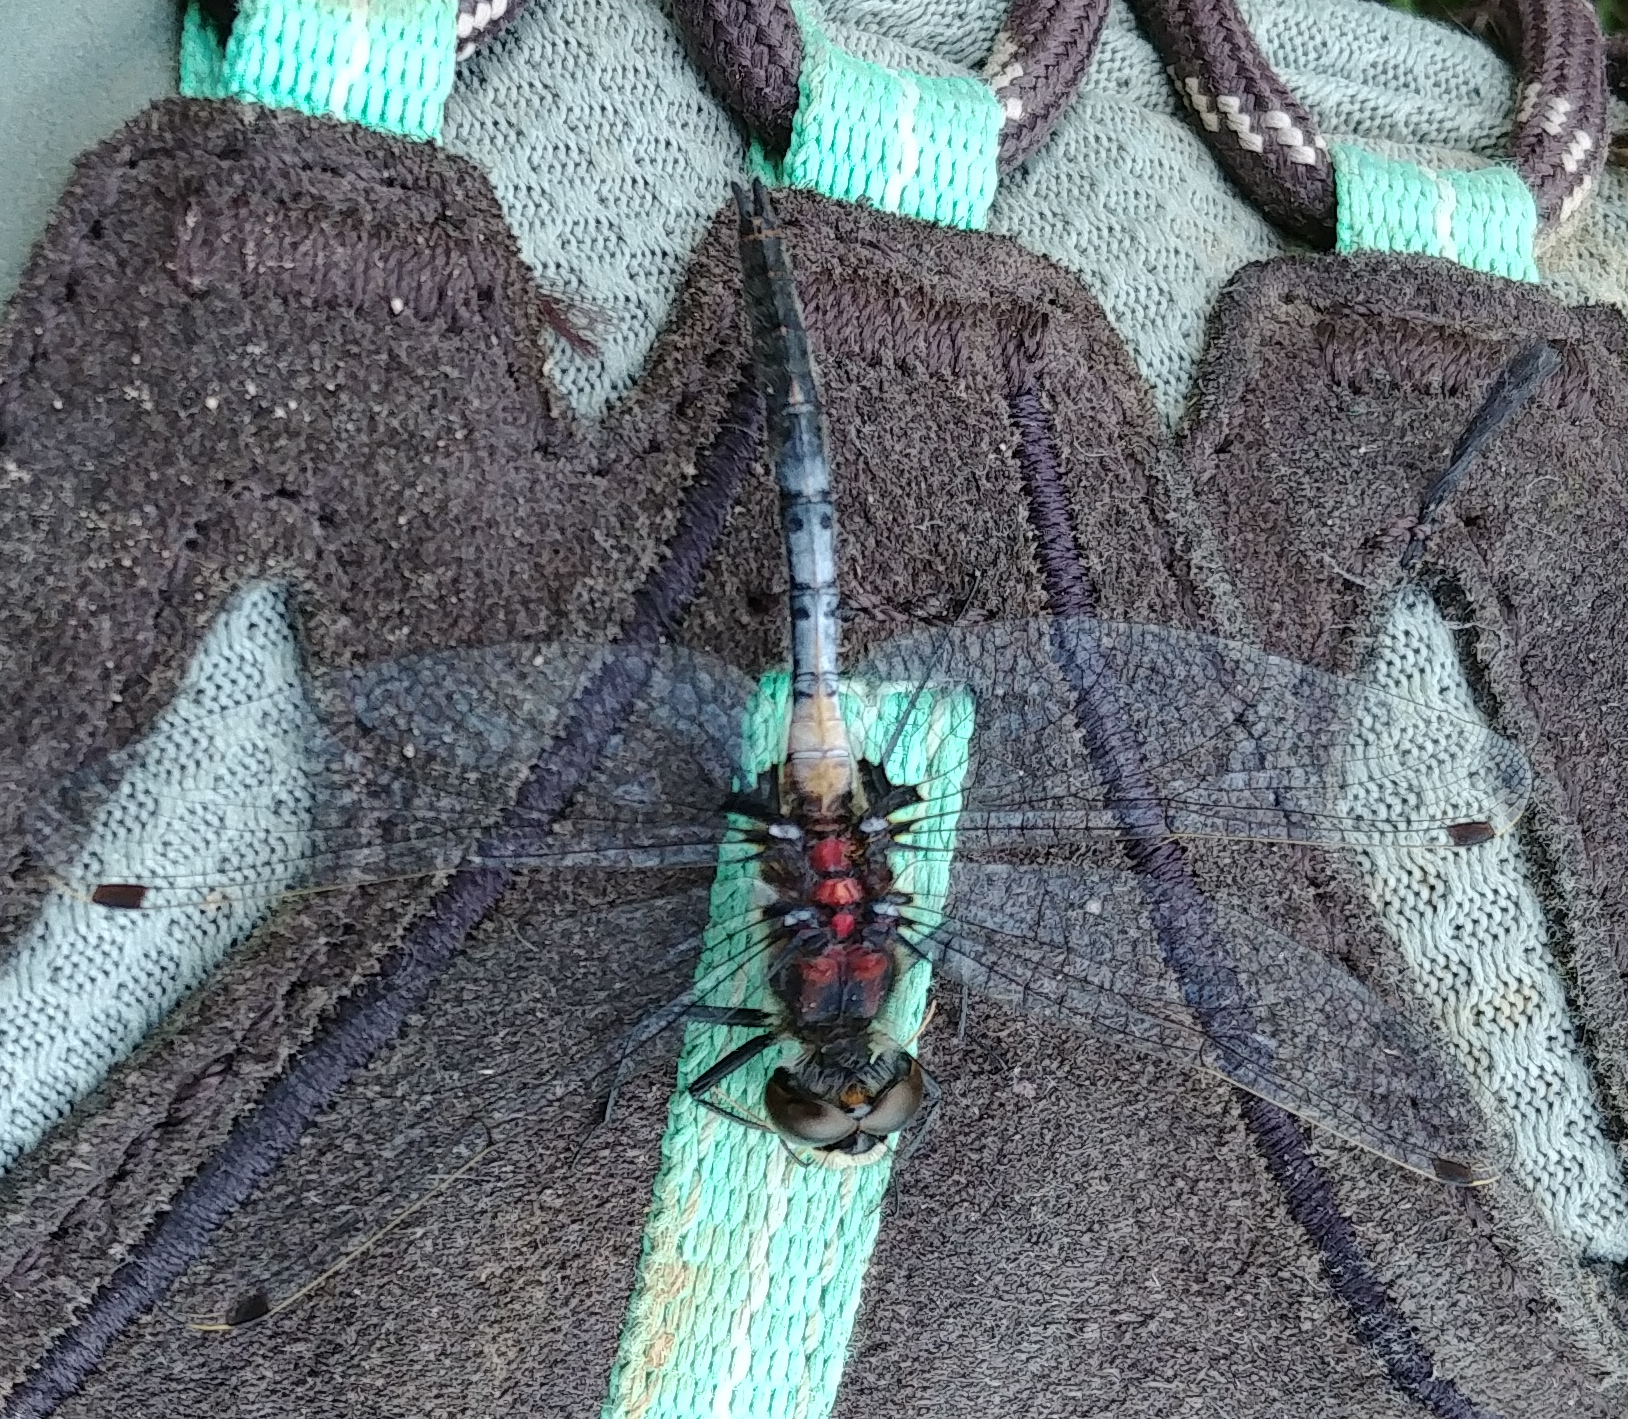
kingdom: Animalia
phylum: Arthropoda
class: Insecta
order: Odonata
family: Libellulidae
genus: Leucorrhinia
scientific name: Leucorrhinia proxima
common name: Belted whiteface
